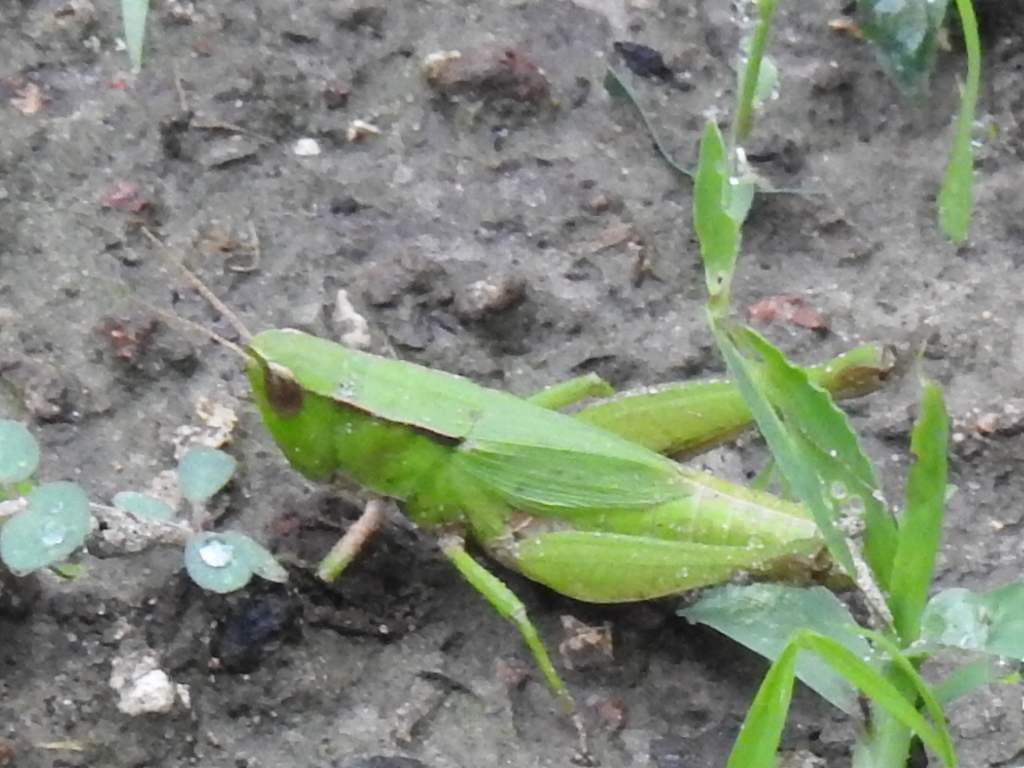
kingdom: Animalia
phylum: Arthropoda
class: Insecta
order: Orthoptera
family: Acrididae
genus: Dichromorpha
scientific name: Dichromorpha viridis
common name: Short-winged green grasshopper
